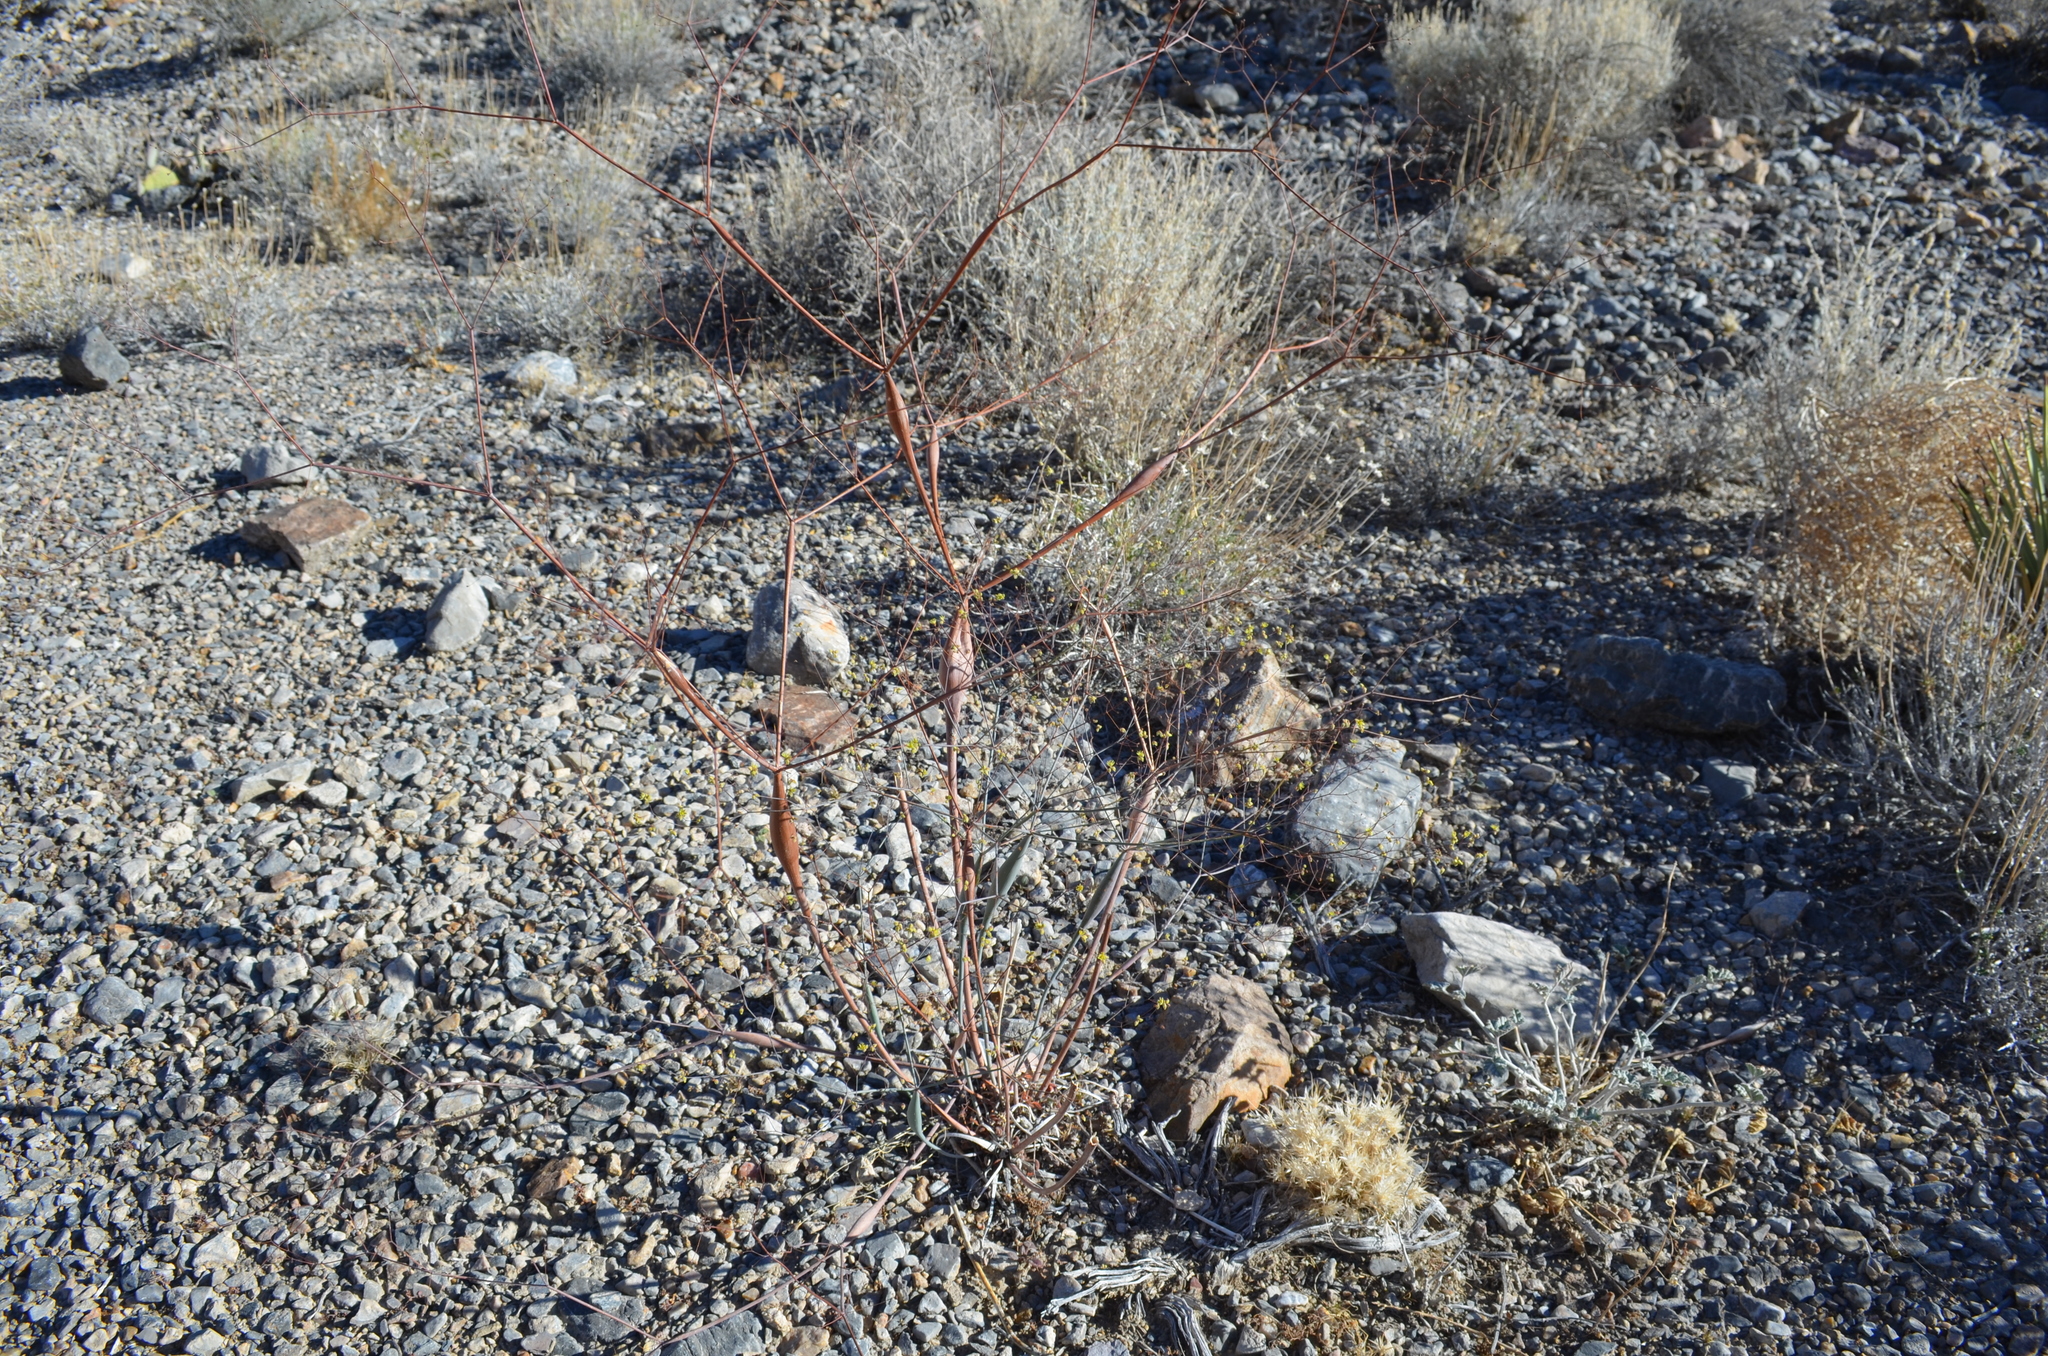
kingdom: Plantae
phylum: Tracheophyta
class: Magnoliopsida
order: Caryophyllales
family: Polygonaceae
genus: Eriogonum
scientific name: Eriogonum inflatum
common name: Desert trumpet
